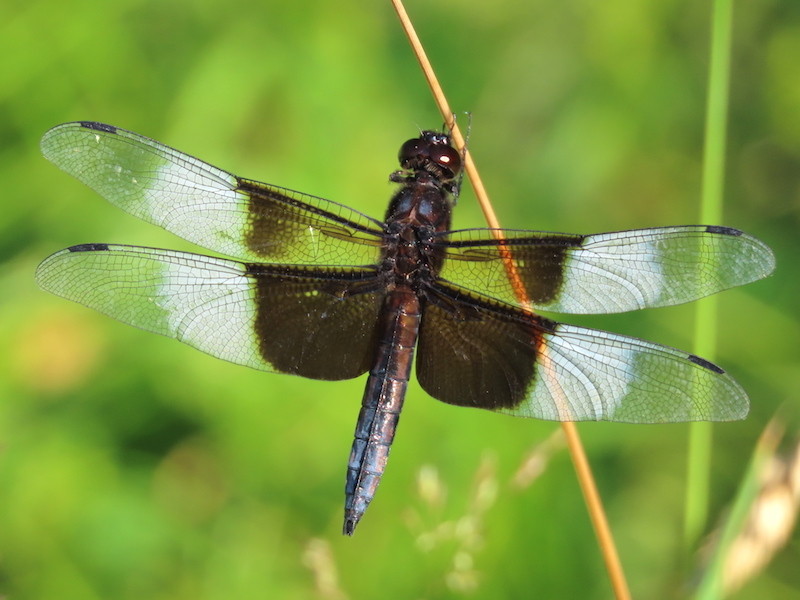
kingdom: Animalia
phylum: Arthropoda
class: Insecta
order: Odonata
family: Libellulidae
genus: Libellula
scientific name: Libellula luctuosa
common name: Widow skimmer
